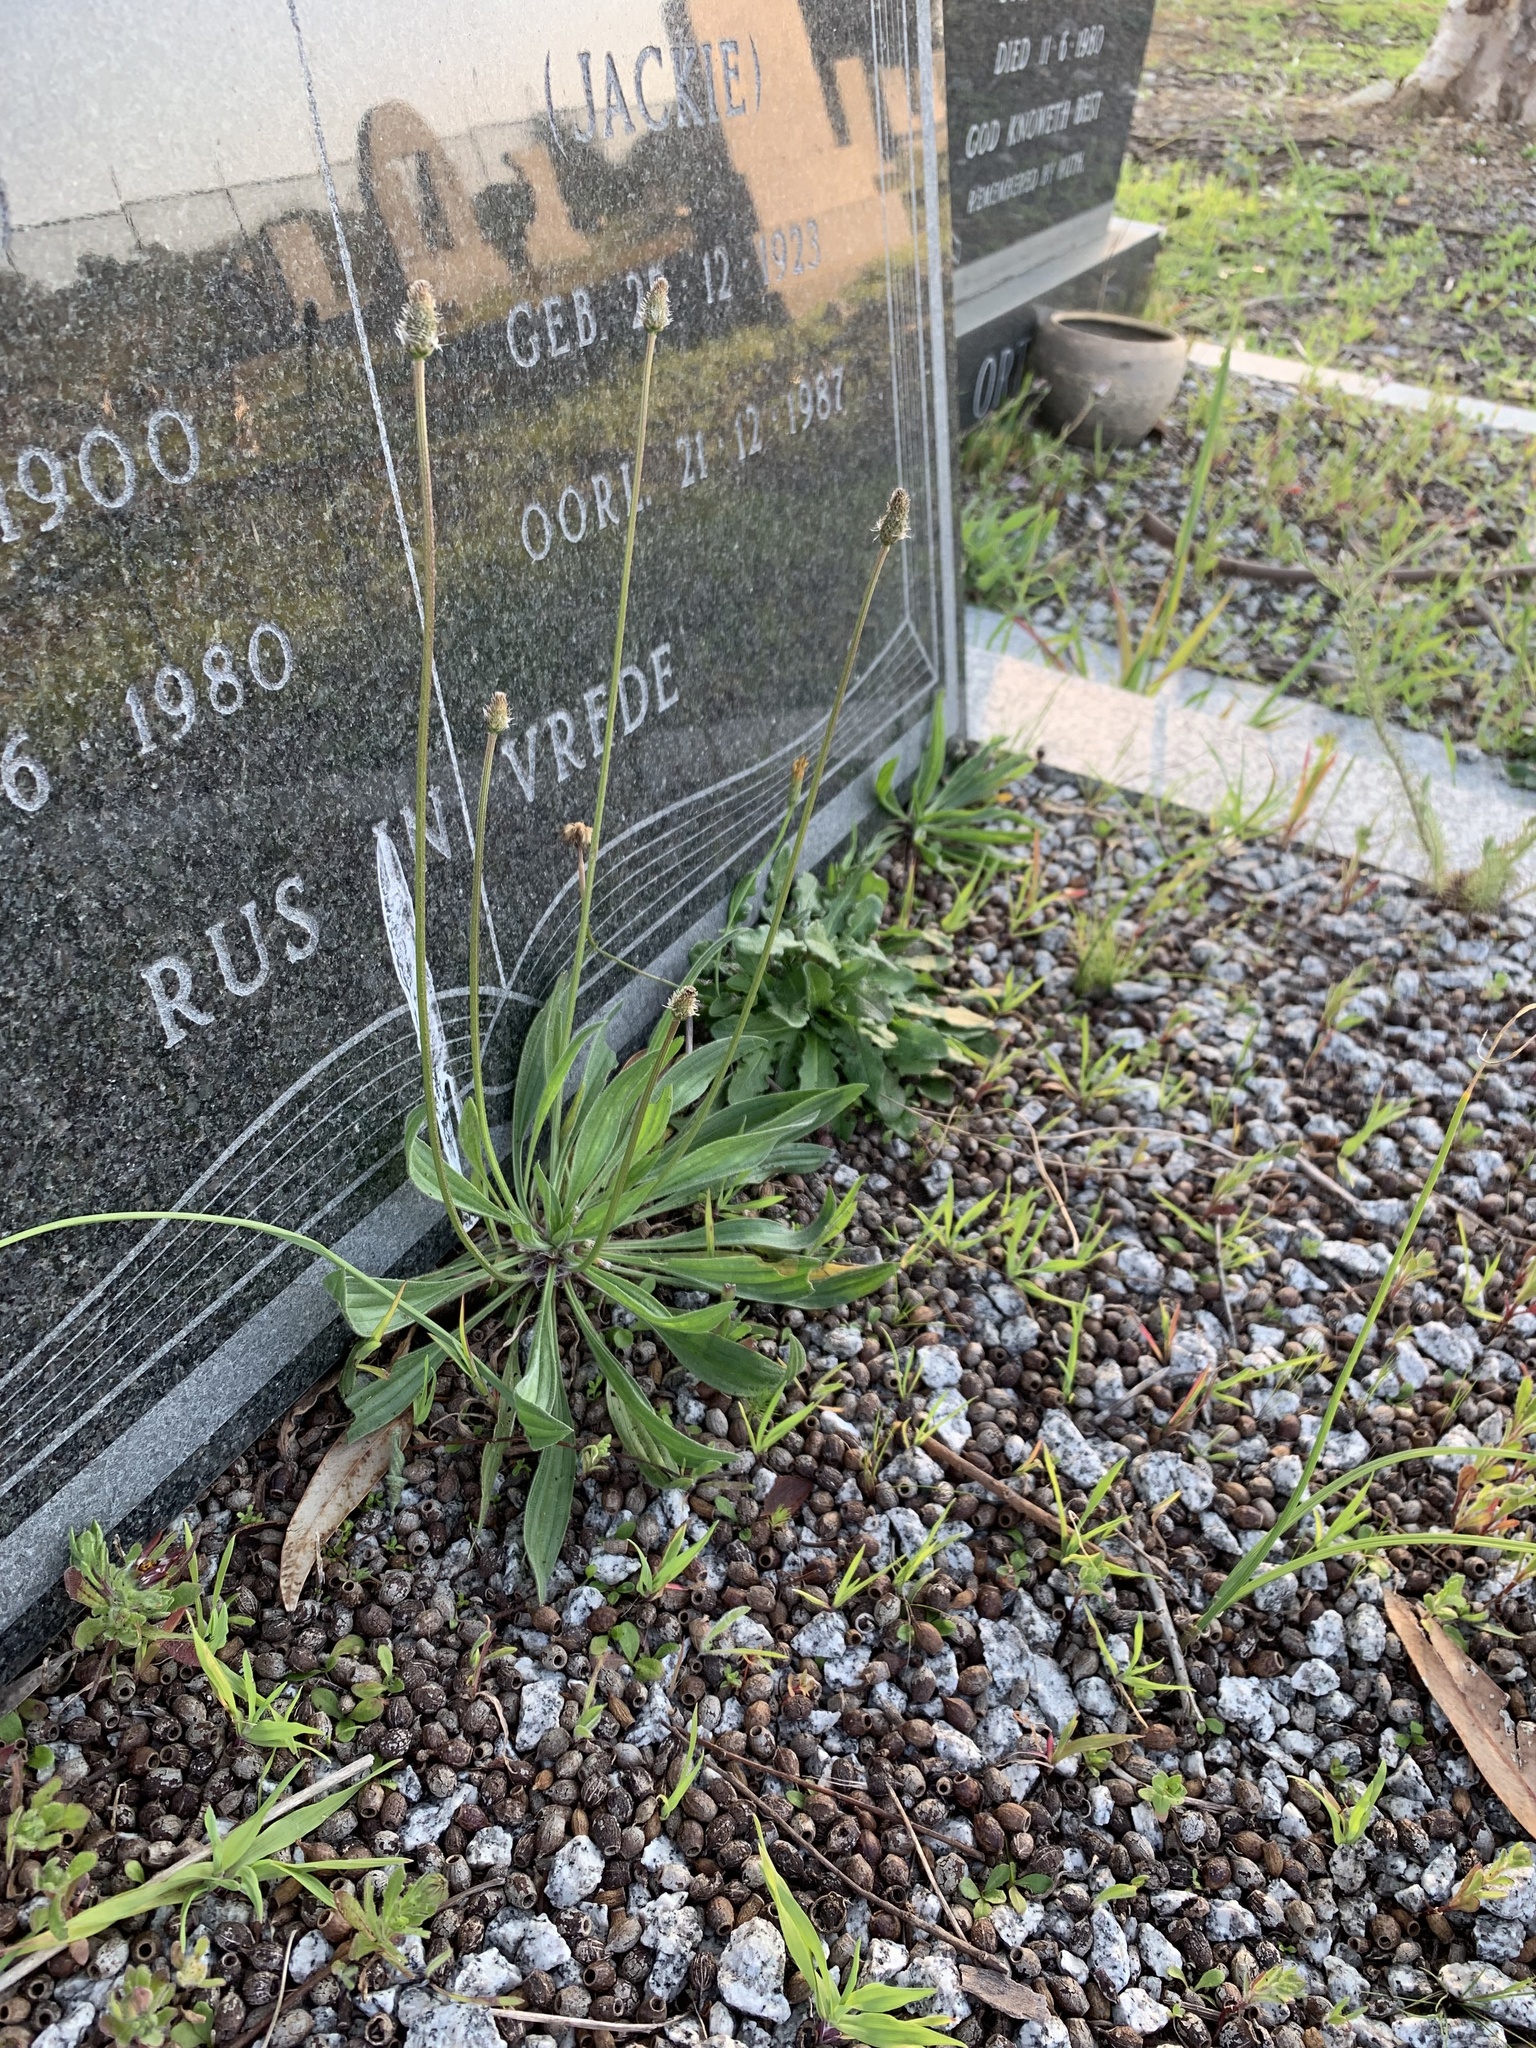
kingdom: Plantae
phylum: Tracheophyta
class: Magnoliopsida
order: Lamiales
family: Plantaginaceae
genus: Plantago
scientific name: Plantago lanceolata
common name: Ribwort plantain
